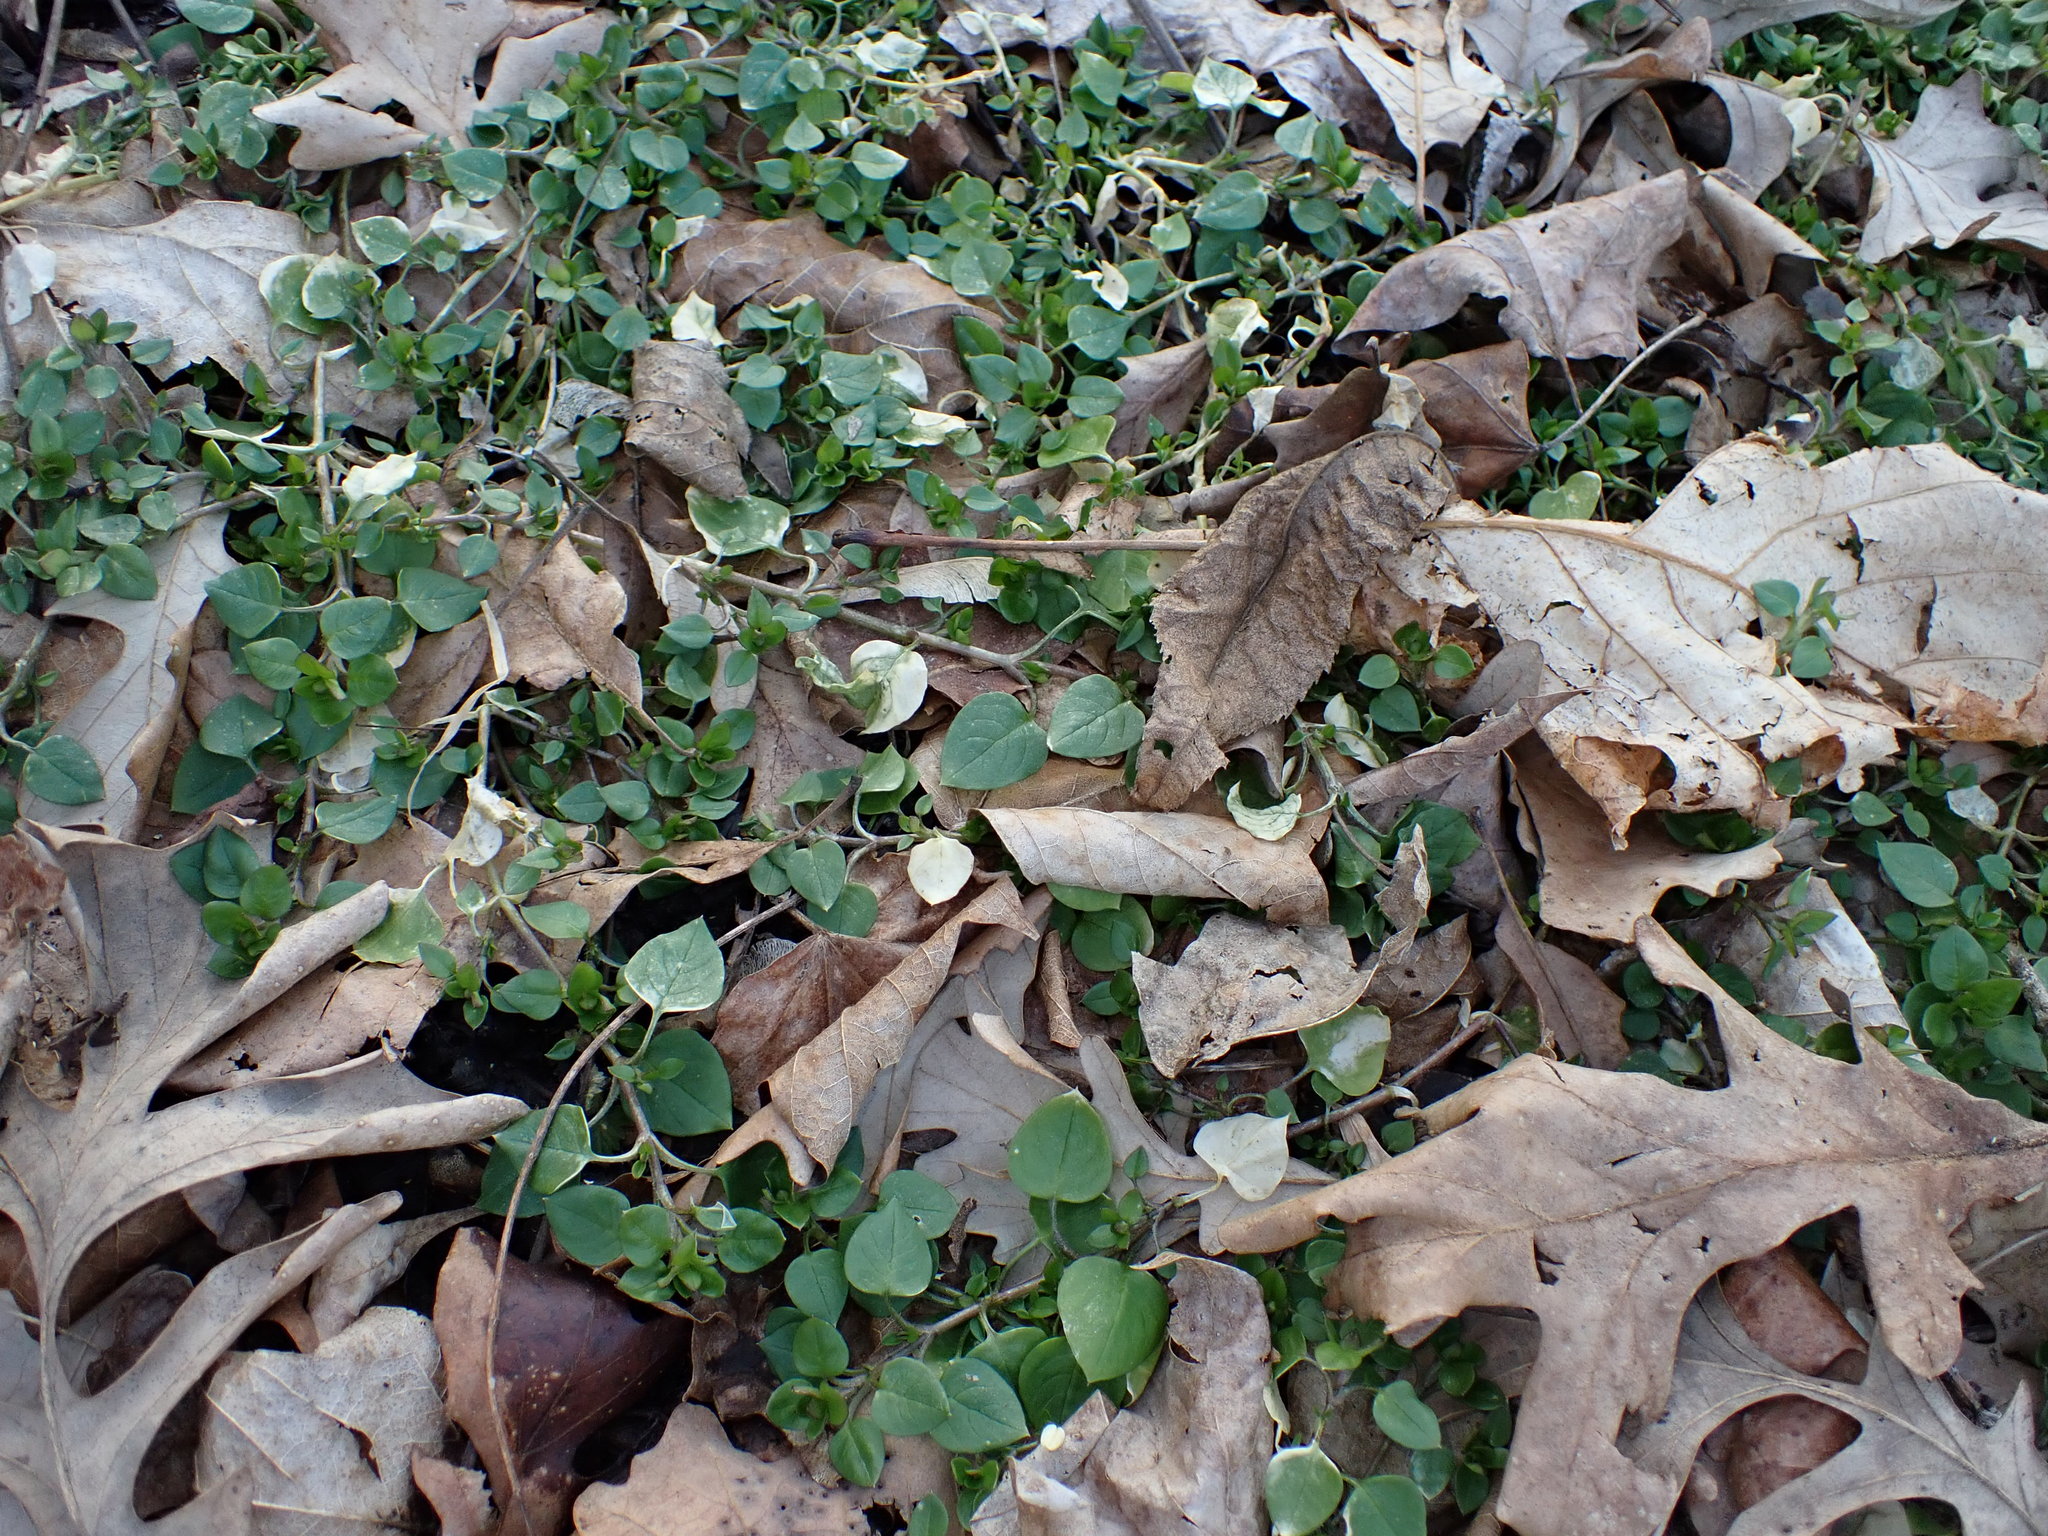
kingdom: Plantae
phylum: Tracheophyta
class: Magnoliopsida
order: Caryophyllales
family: Caryophyllaceae
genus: Stellaria
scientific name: Stellaria media
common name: Common chickweed
